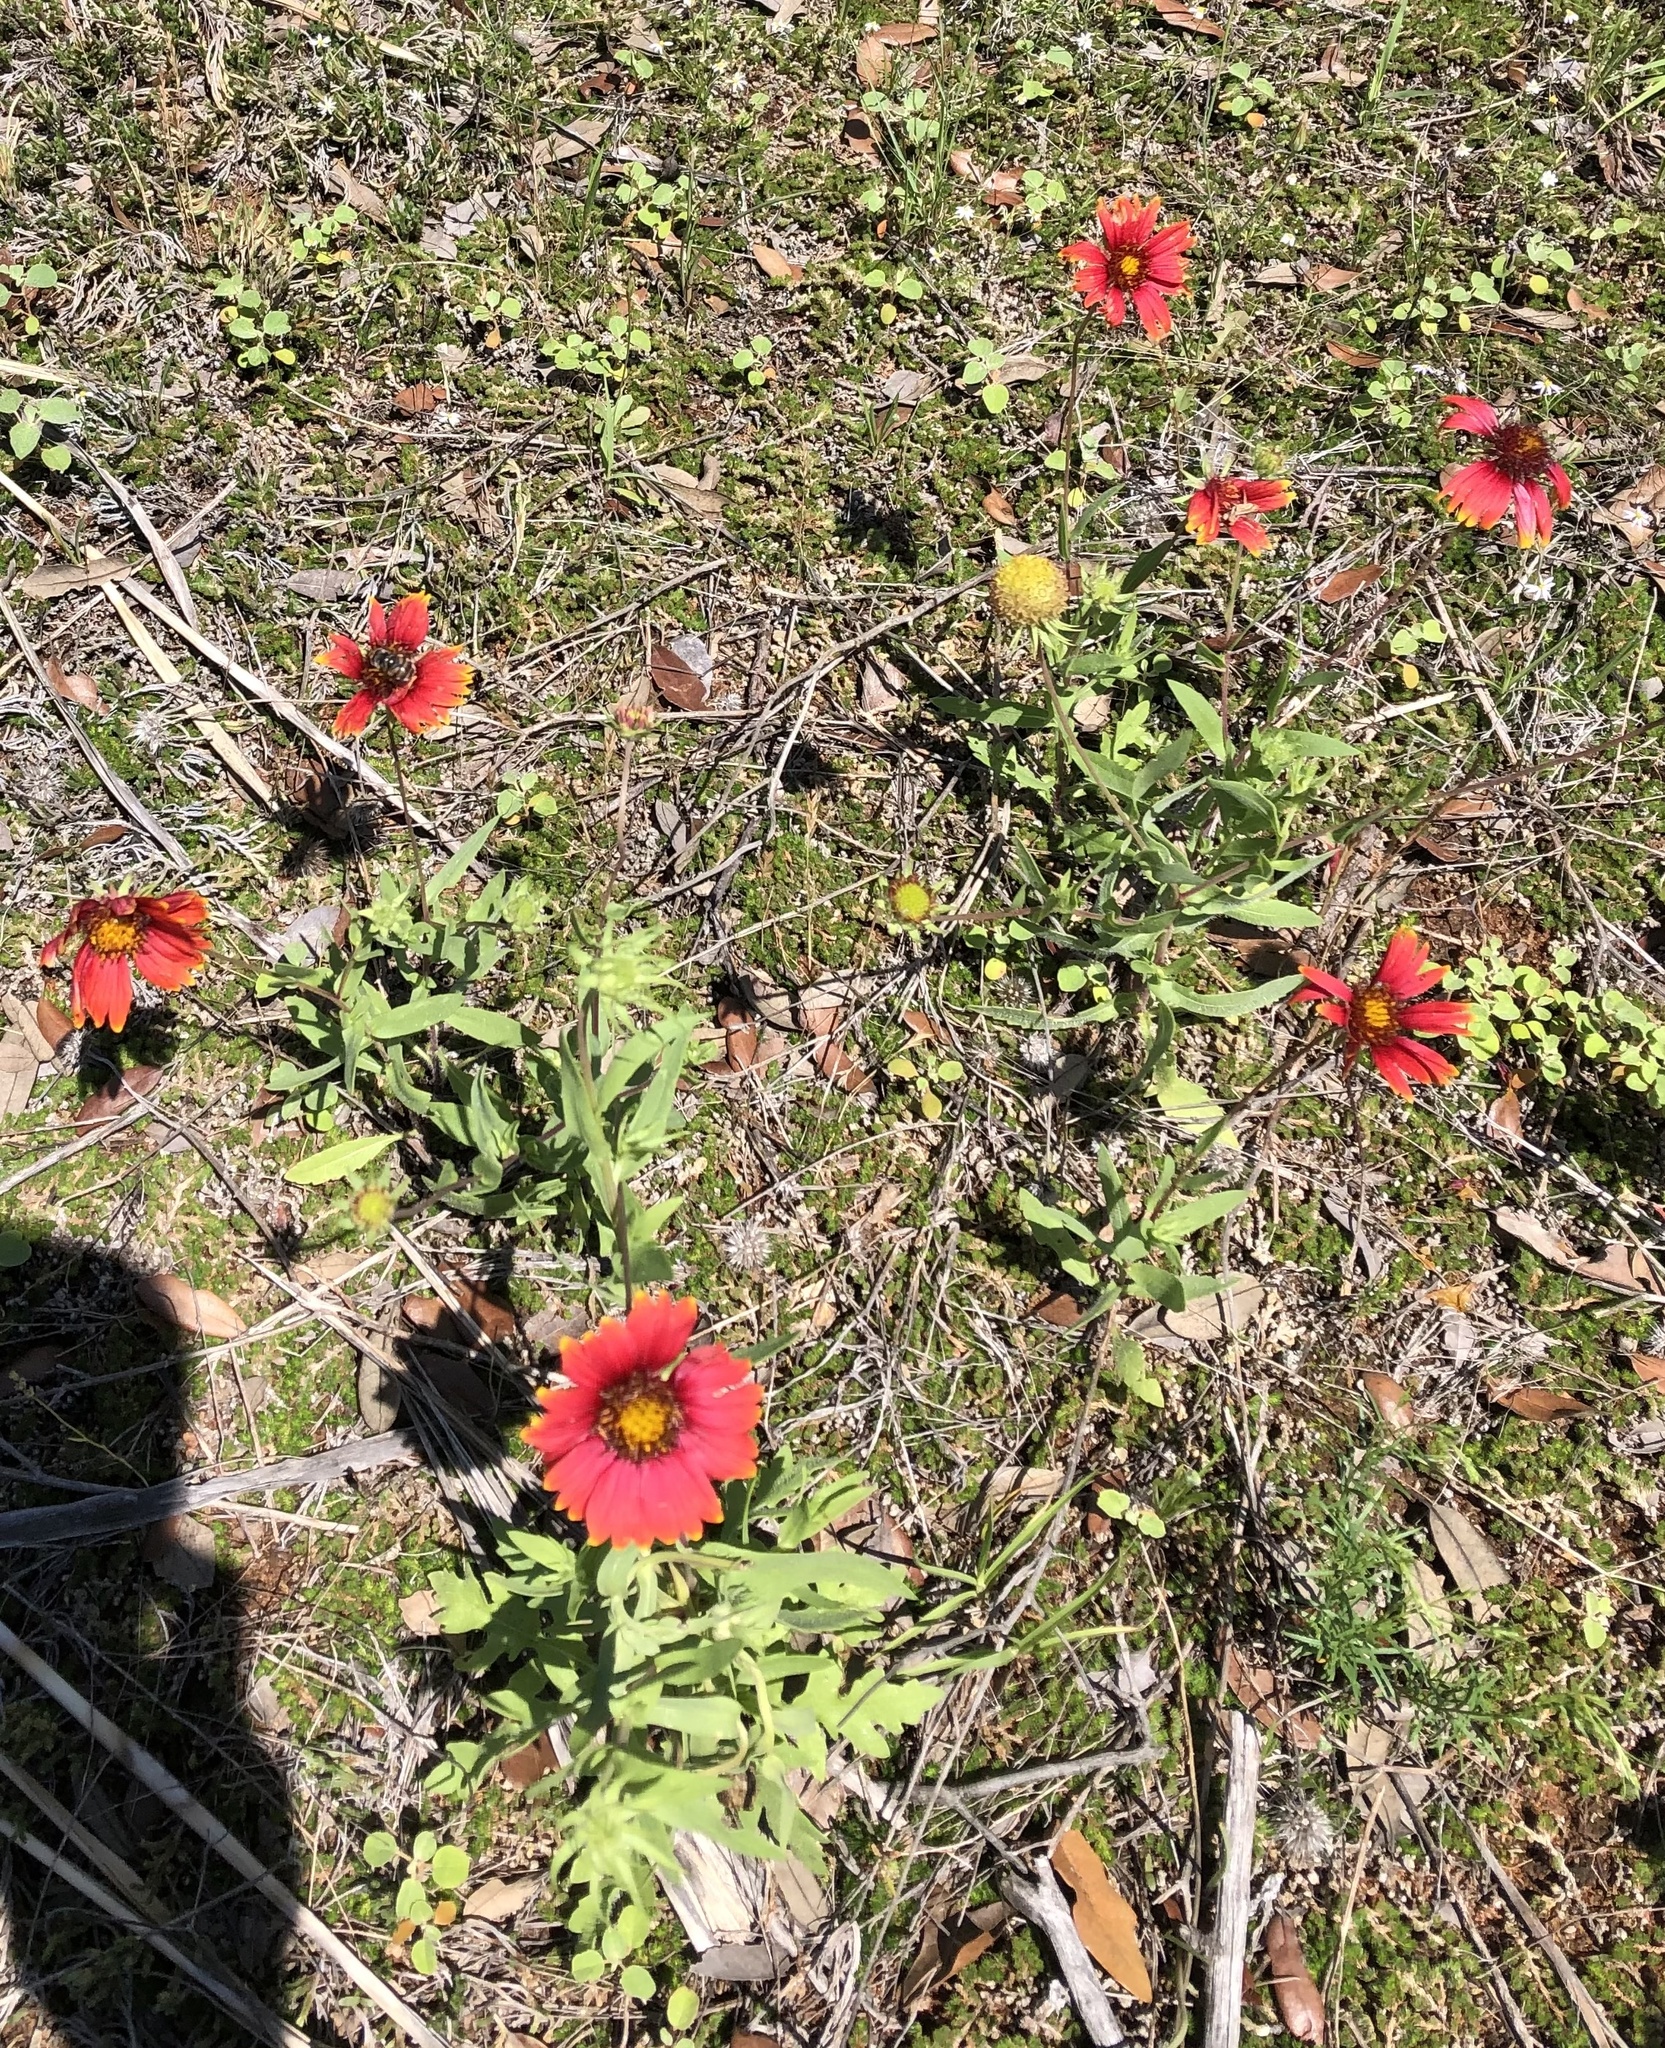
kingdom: Plantae
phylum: Tracheophyta
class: Magnoliopsida
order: Asterales
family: Asteraceae
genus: Gaillardia
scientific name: Gaillardia pulchella
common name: Firewheel
